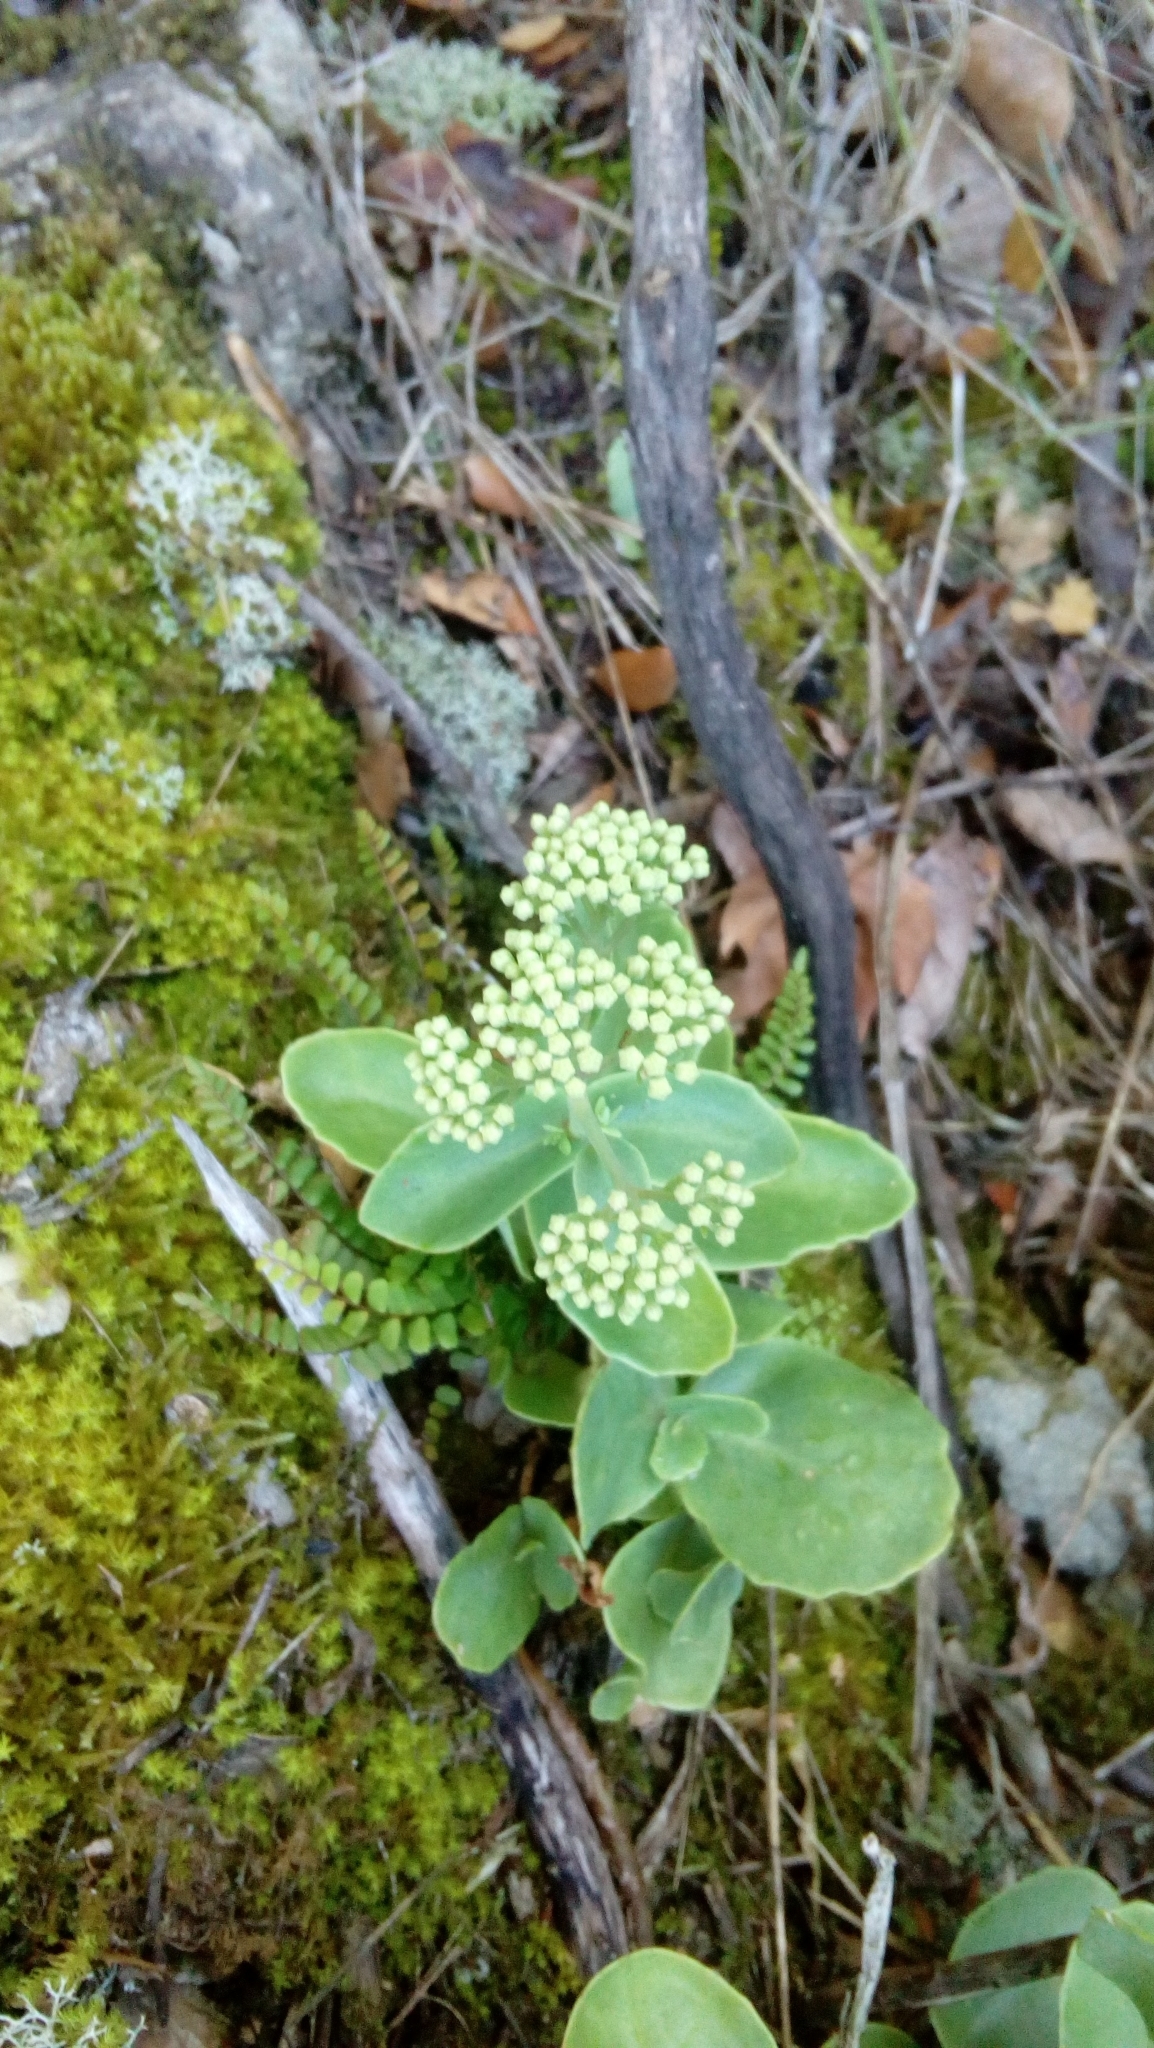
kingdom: Plantae
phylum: Tracheophyta
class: Magnoliopsida
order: Saxifragales
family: Crassulaceae
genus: Hylotelephium
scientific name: Hylotelephium maximum
